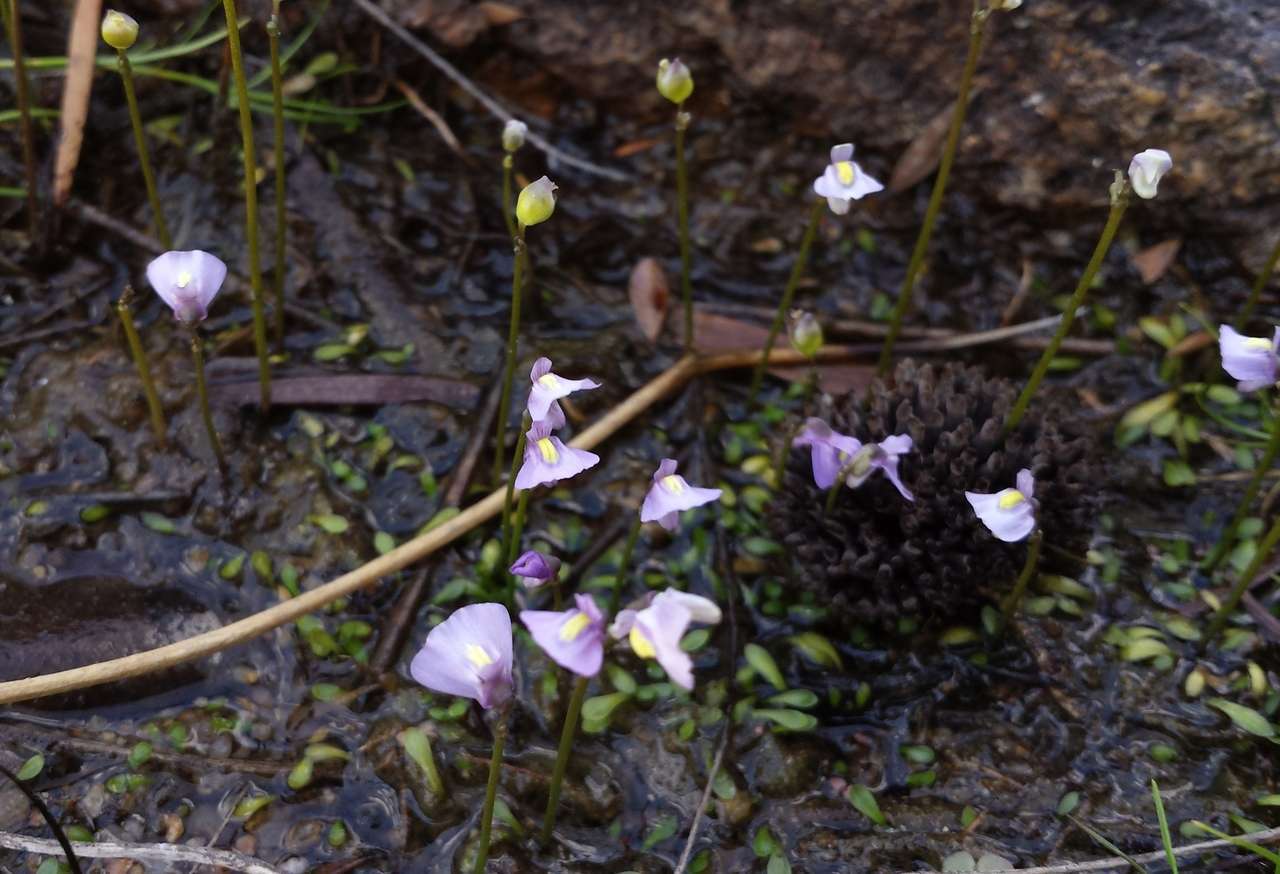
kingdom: Plantae
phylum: Tracheophyta
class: Magnoliopsida
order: Lamiales
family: Lentibulariaceae
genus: Utricularia
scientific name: Utricularia dichotoma
